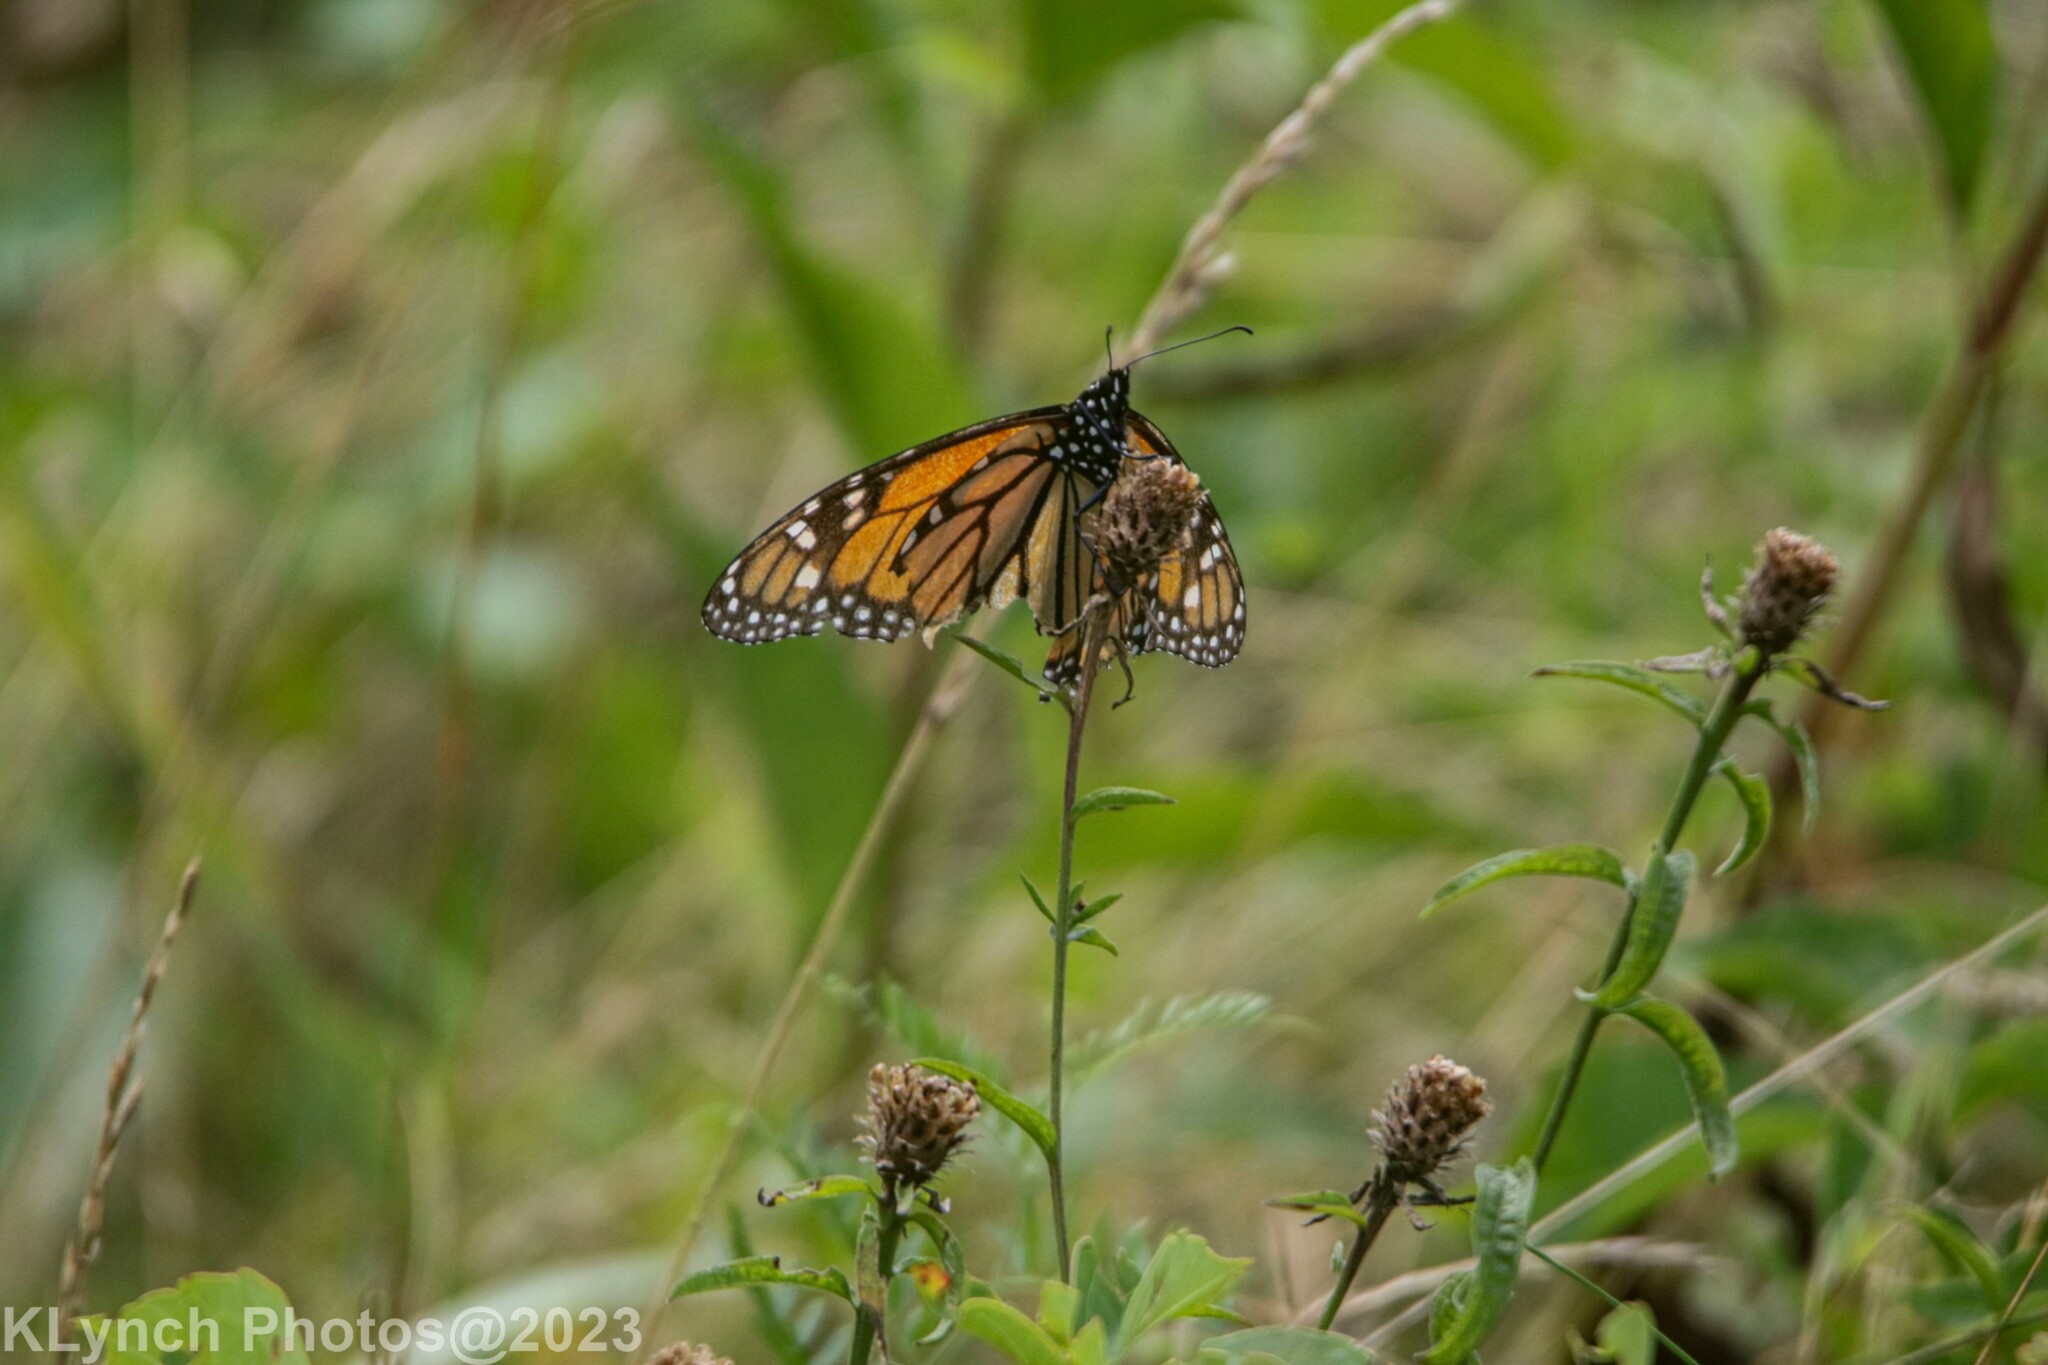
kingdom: Animalia
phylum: Arthropoda
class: Insecta
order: Lepidoptera
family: Nymphalidae
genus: Danaus
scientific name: Danaus plexippus
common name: Monarch
